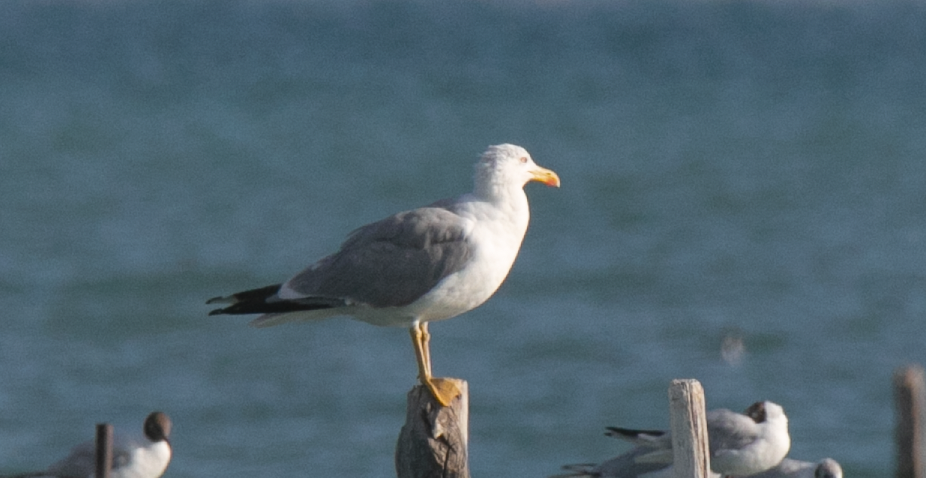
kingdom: Animalia
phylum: Chordata
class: Aves
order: Charadriiformes
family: Laridae
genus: Larus
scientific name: Larus michahellis
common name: Yellow-legged gull
